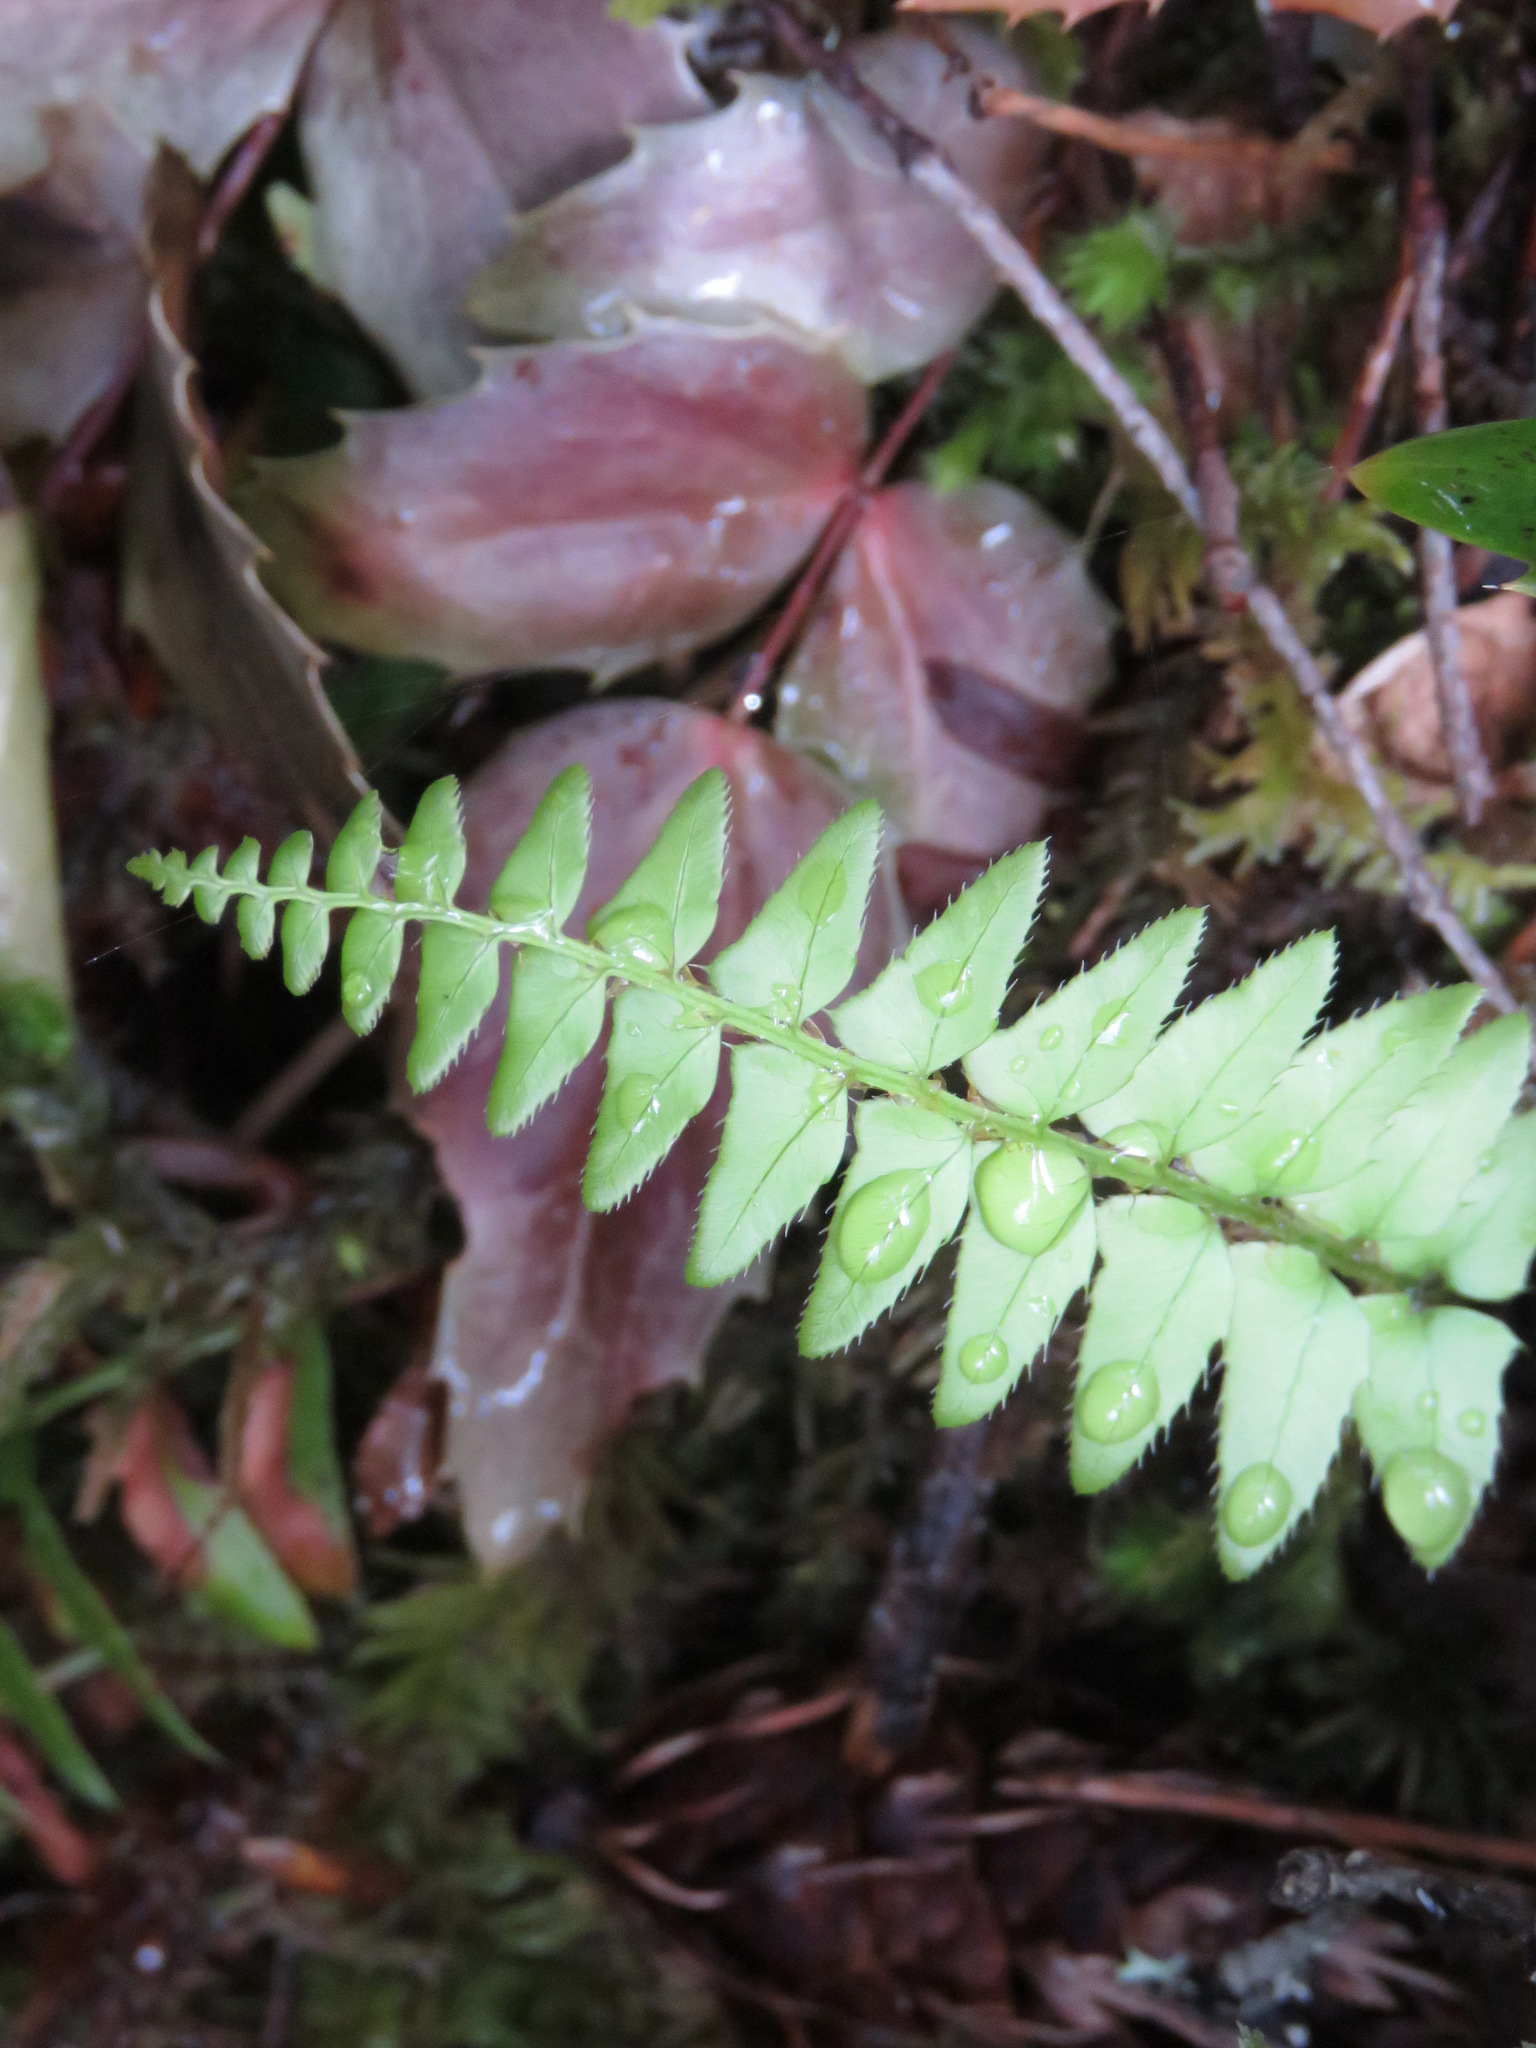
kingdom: Plantae
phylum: Tracheophyta
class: Polypodiopsida
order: Polypodiales
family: Dryopteridaceae
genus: Polystichum
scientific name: Polystichum munitum
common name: Western sword-fern
